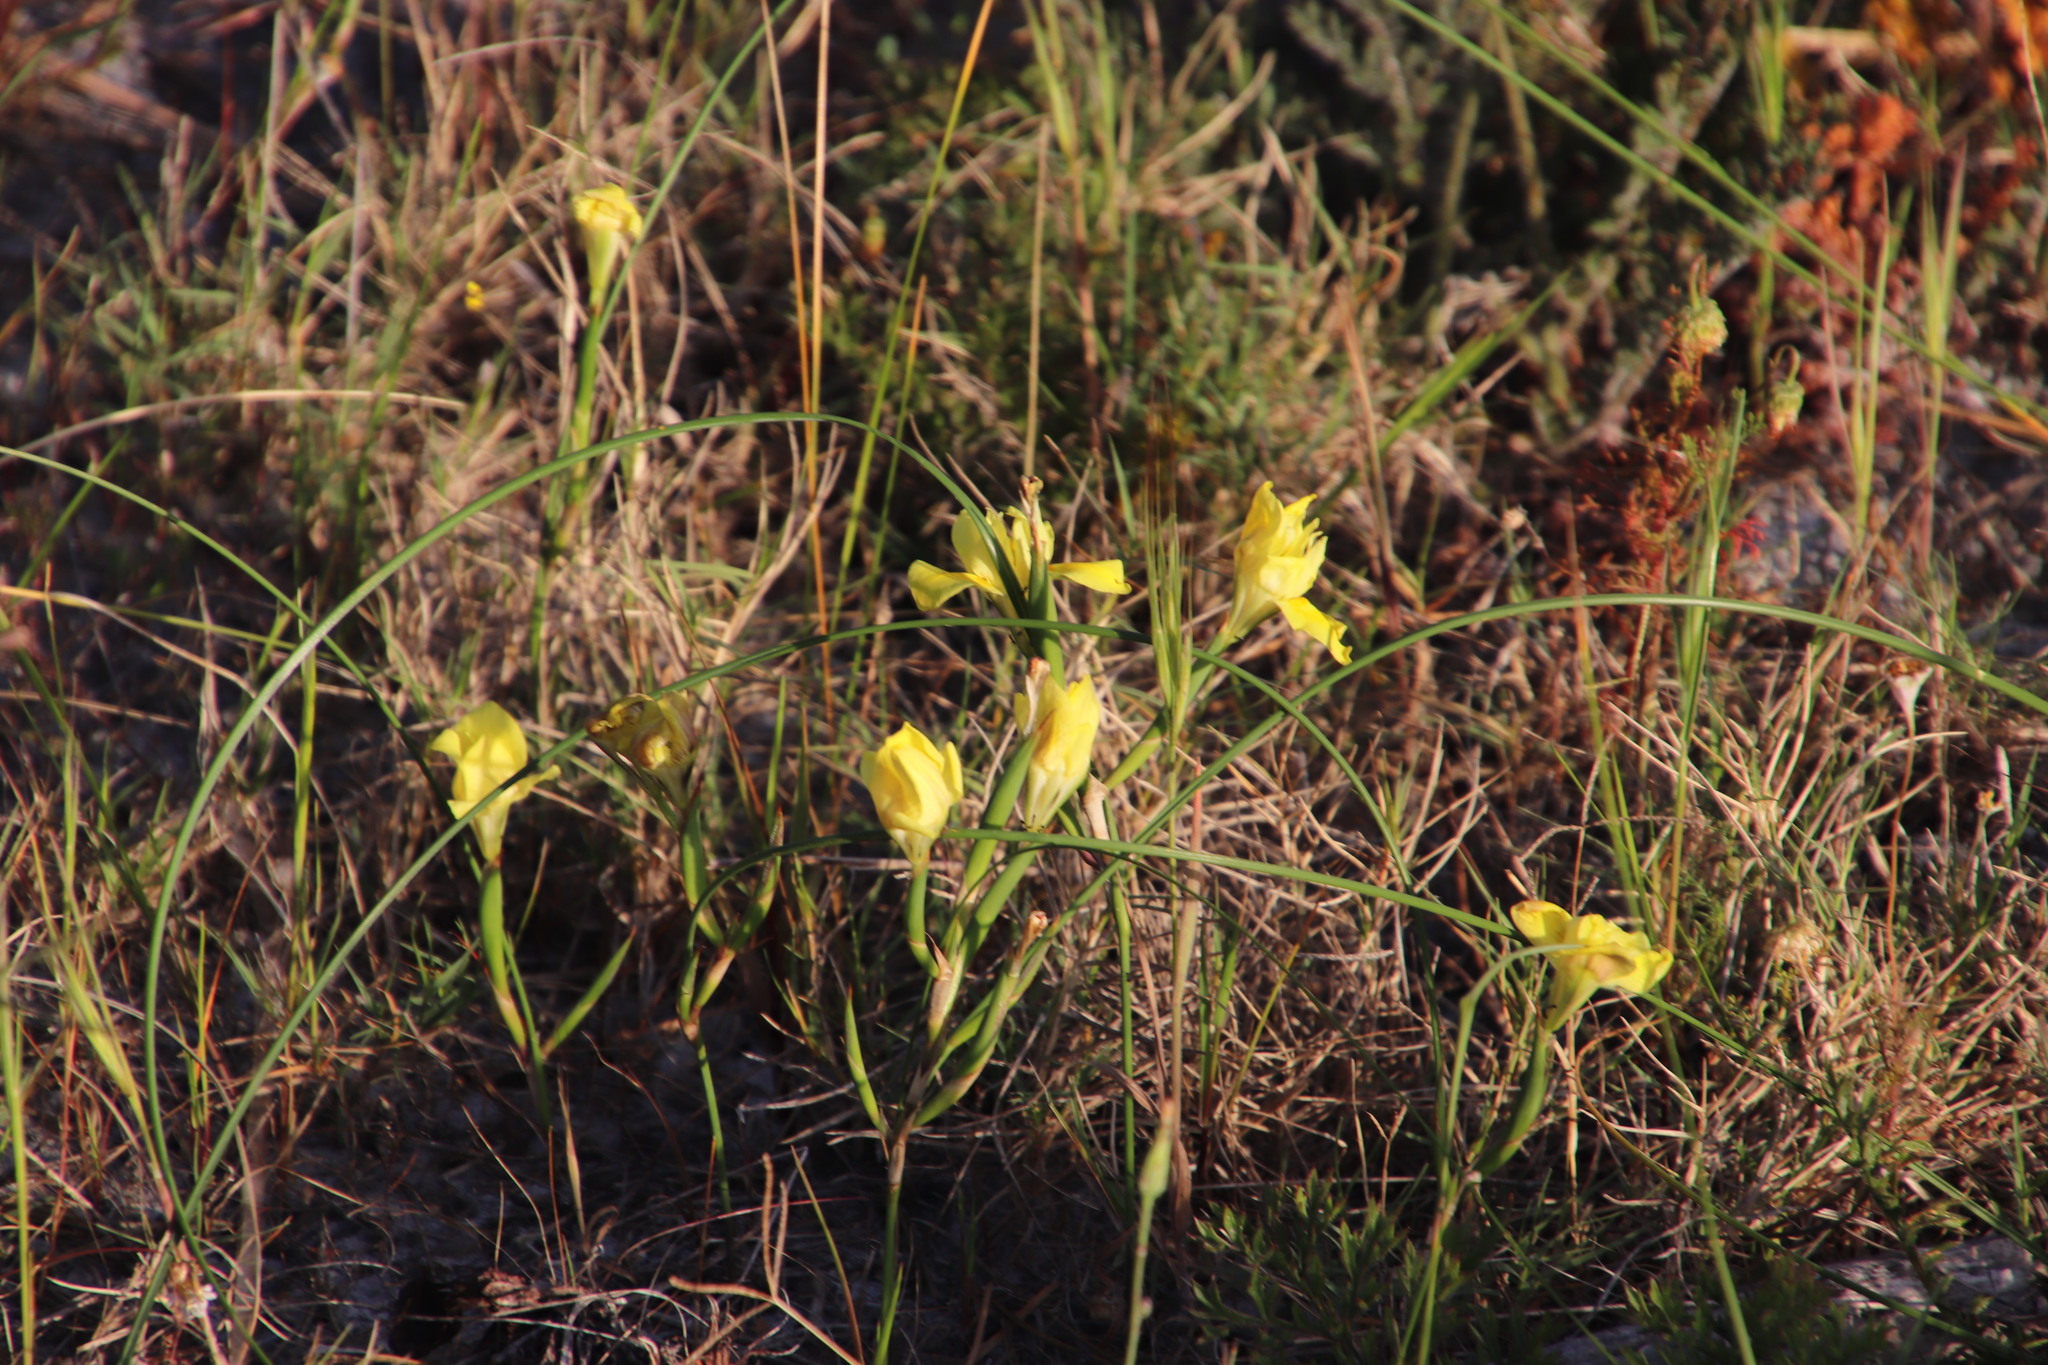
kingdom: Plantae
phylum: Tracheophyta
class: Liliopsida
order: Asparagales
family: Iridaceae
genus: Moraea
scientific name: Moraea fugax
